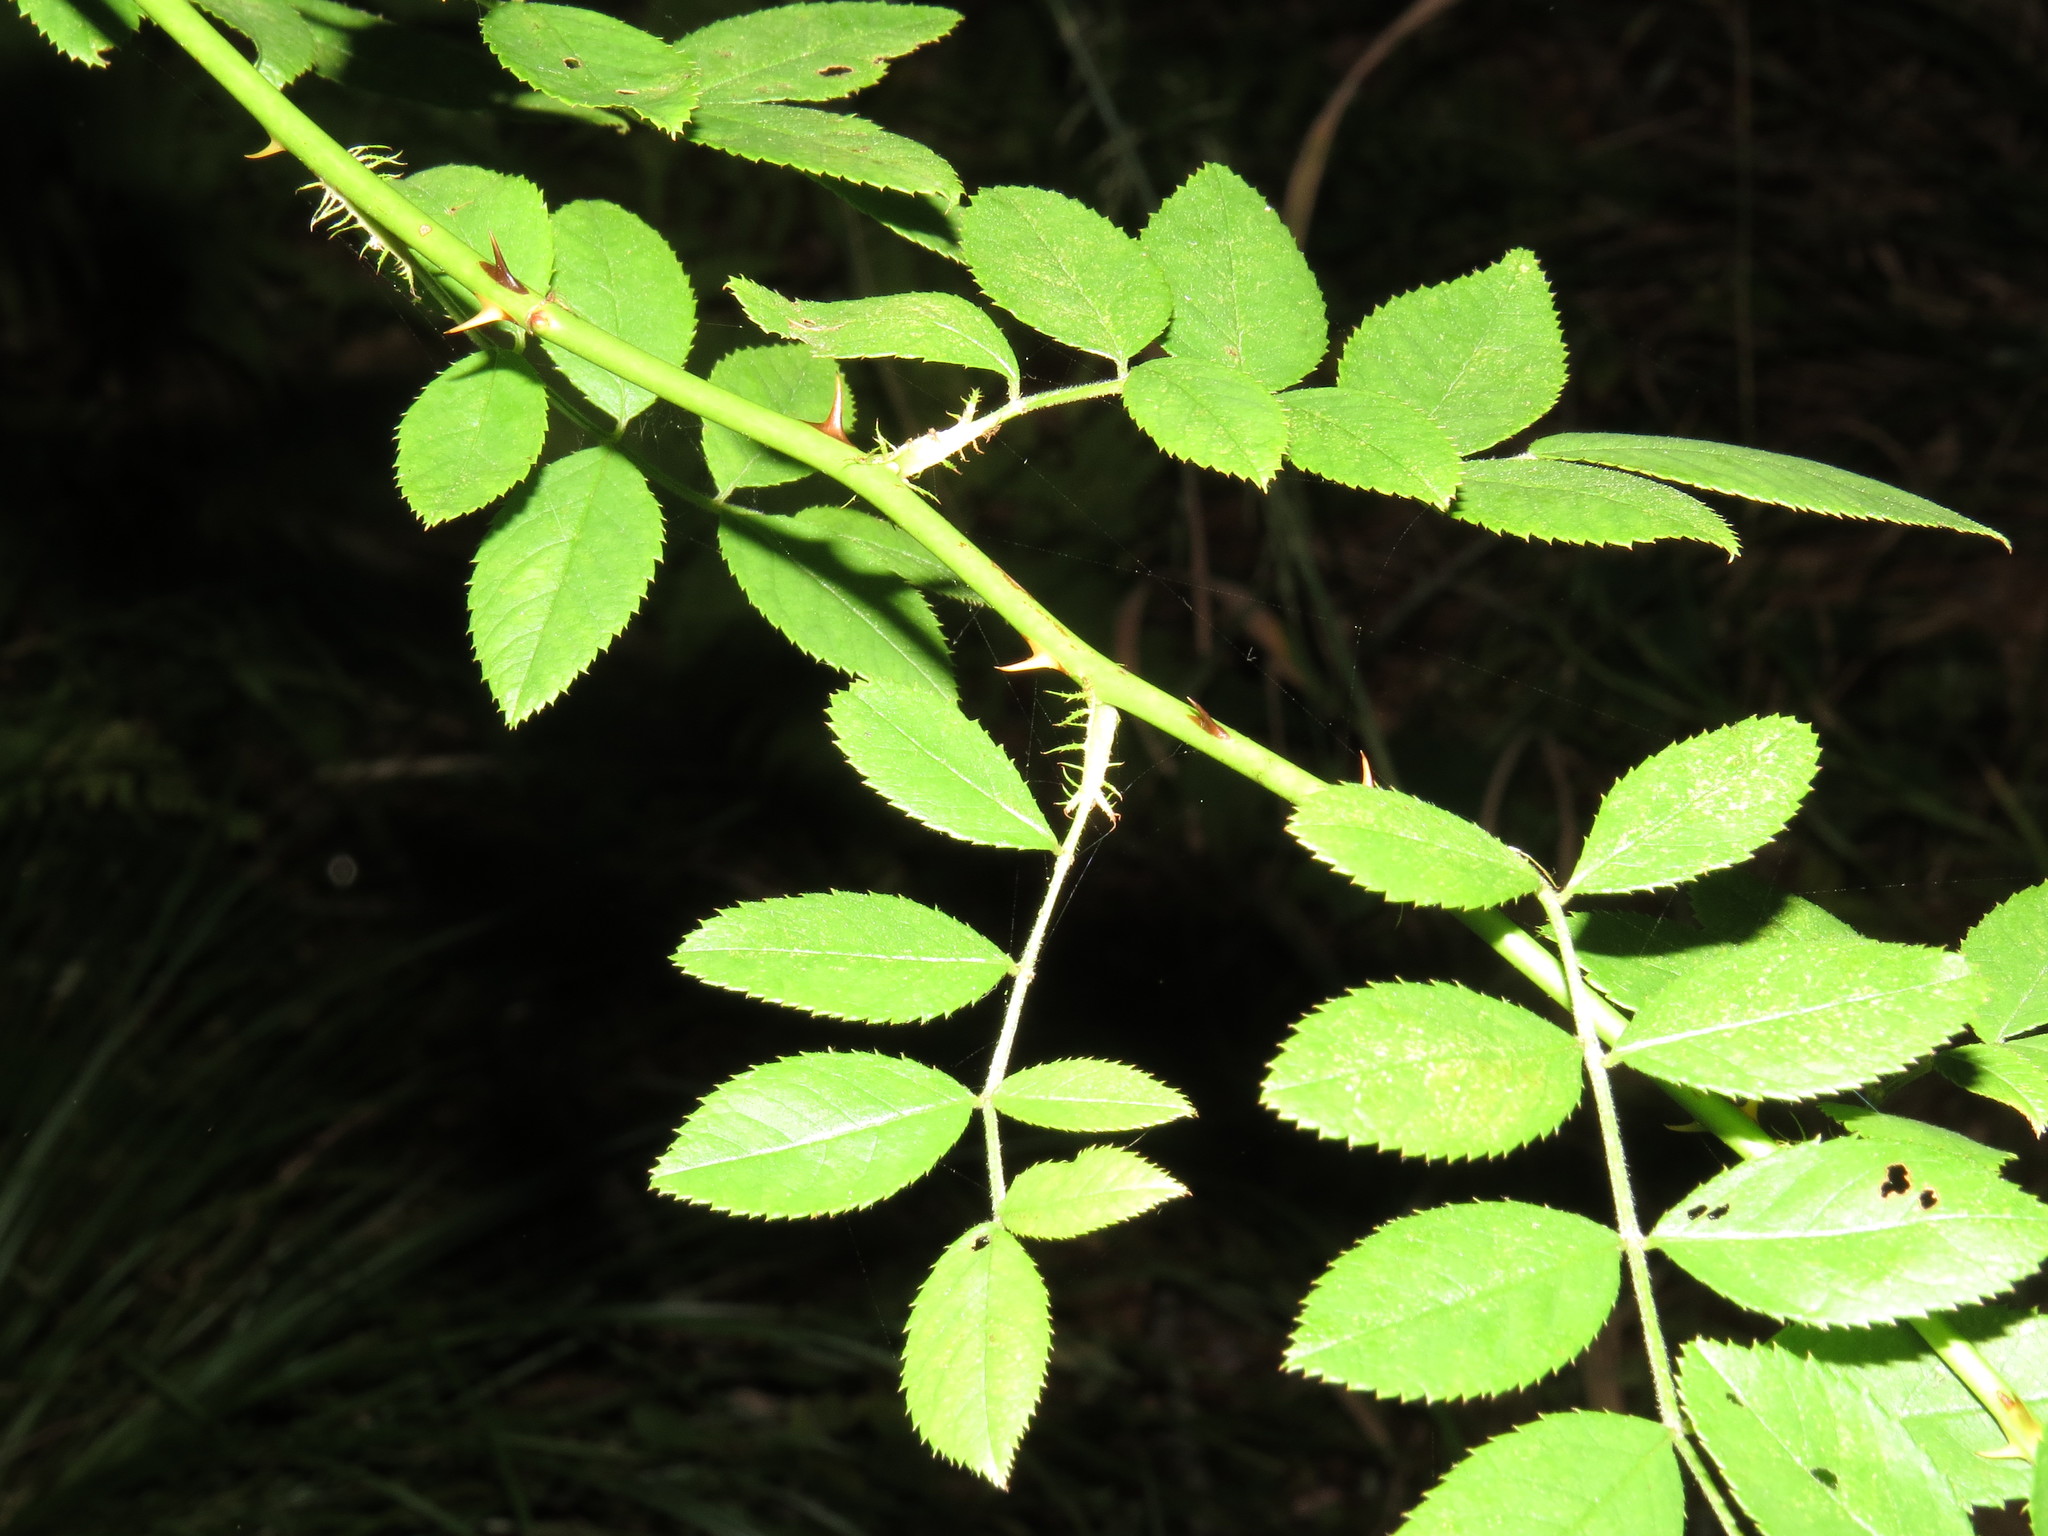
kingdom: Plantae
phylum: Tracheophyta
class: Magnoliopsida
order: Rosales
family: Rosaceae
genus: Rosa
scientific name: Rosa multiflora
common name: Multiflora rose
